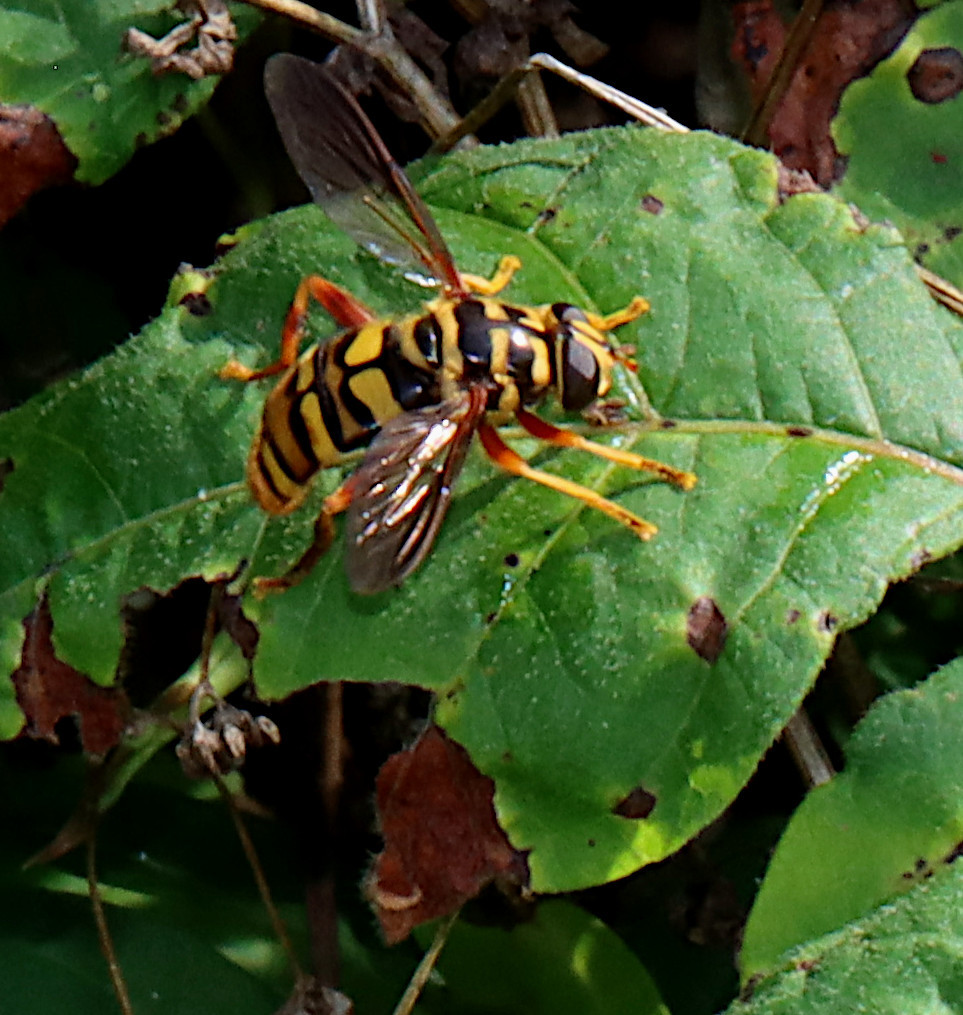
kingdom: Animalia
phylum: Arthropoda
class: Insecta
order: Diptera
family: Syrphidae
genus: Milesia
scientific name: Milesia virginiensis
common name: Virginia giant
